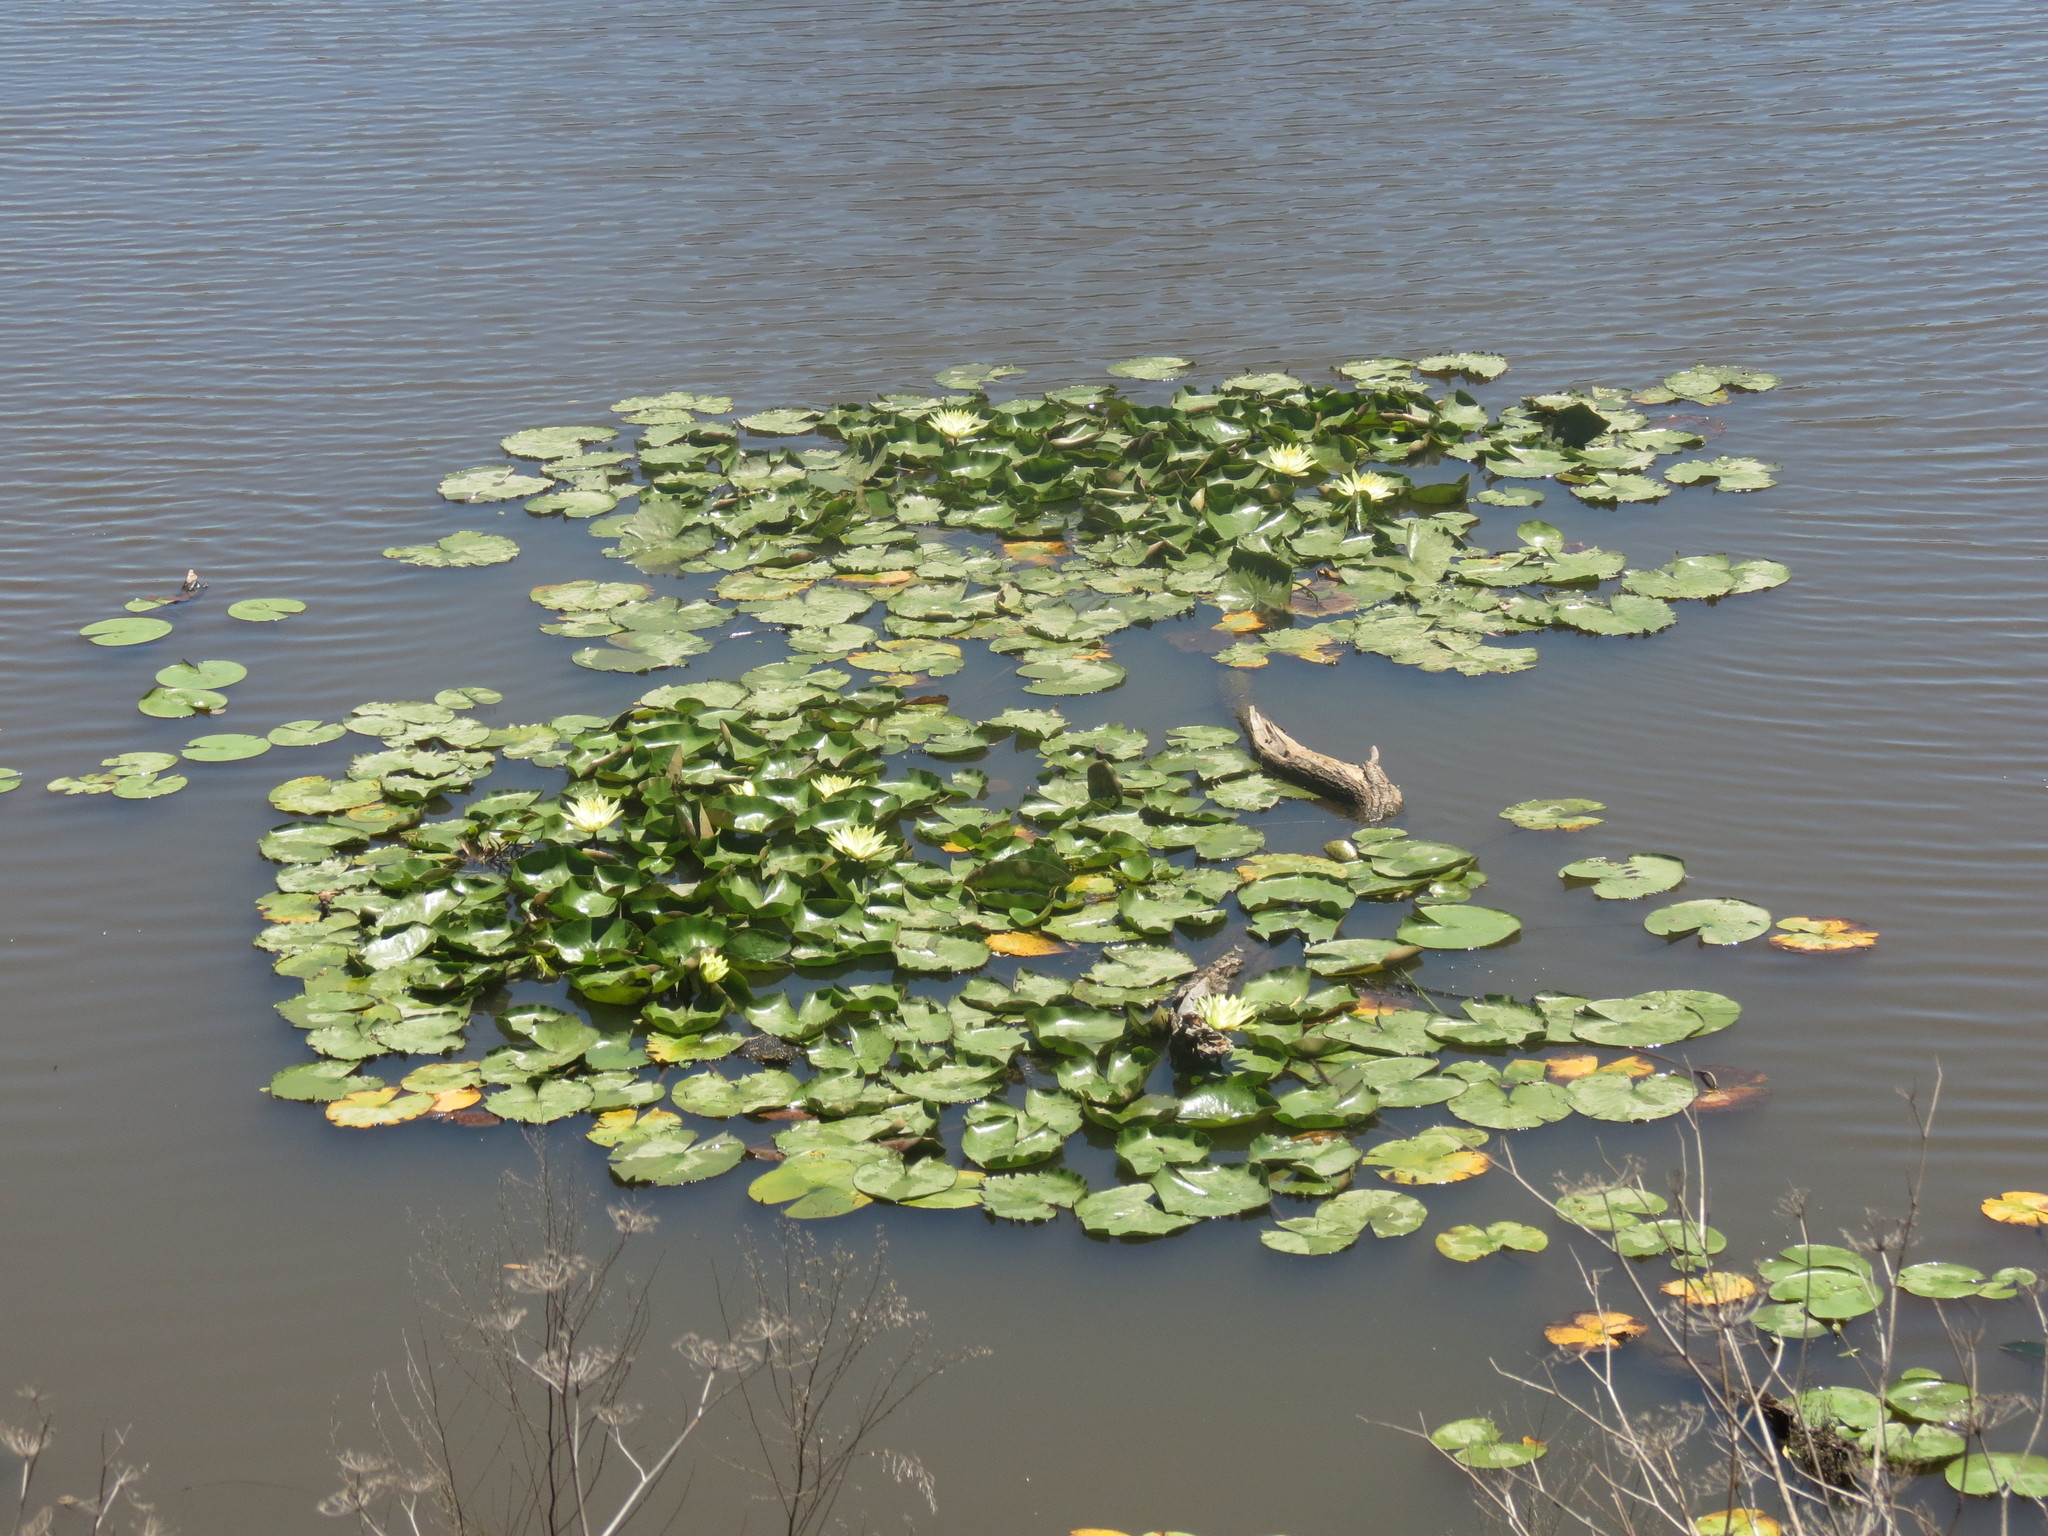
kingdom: Plantae
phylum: Tracheophyta
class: Magnoliopsida
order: Nymphaeales
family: Nymphaeaceae
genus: Nymphaea
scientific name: Nymphaea mexicana
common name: Banana water-lily
